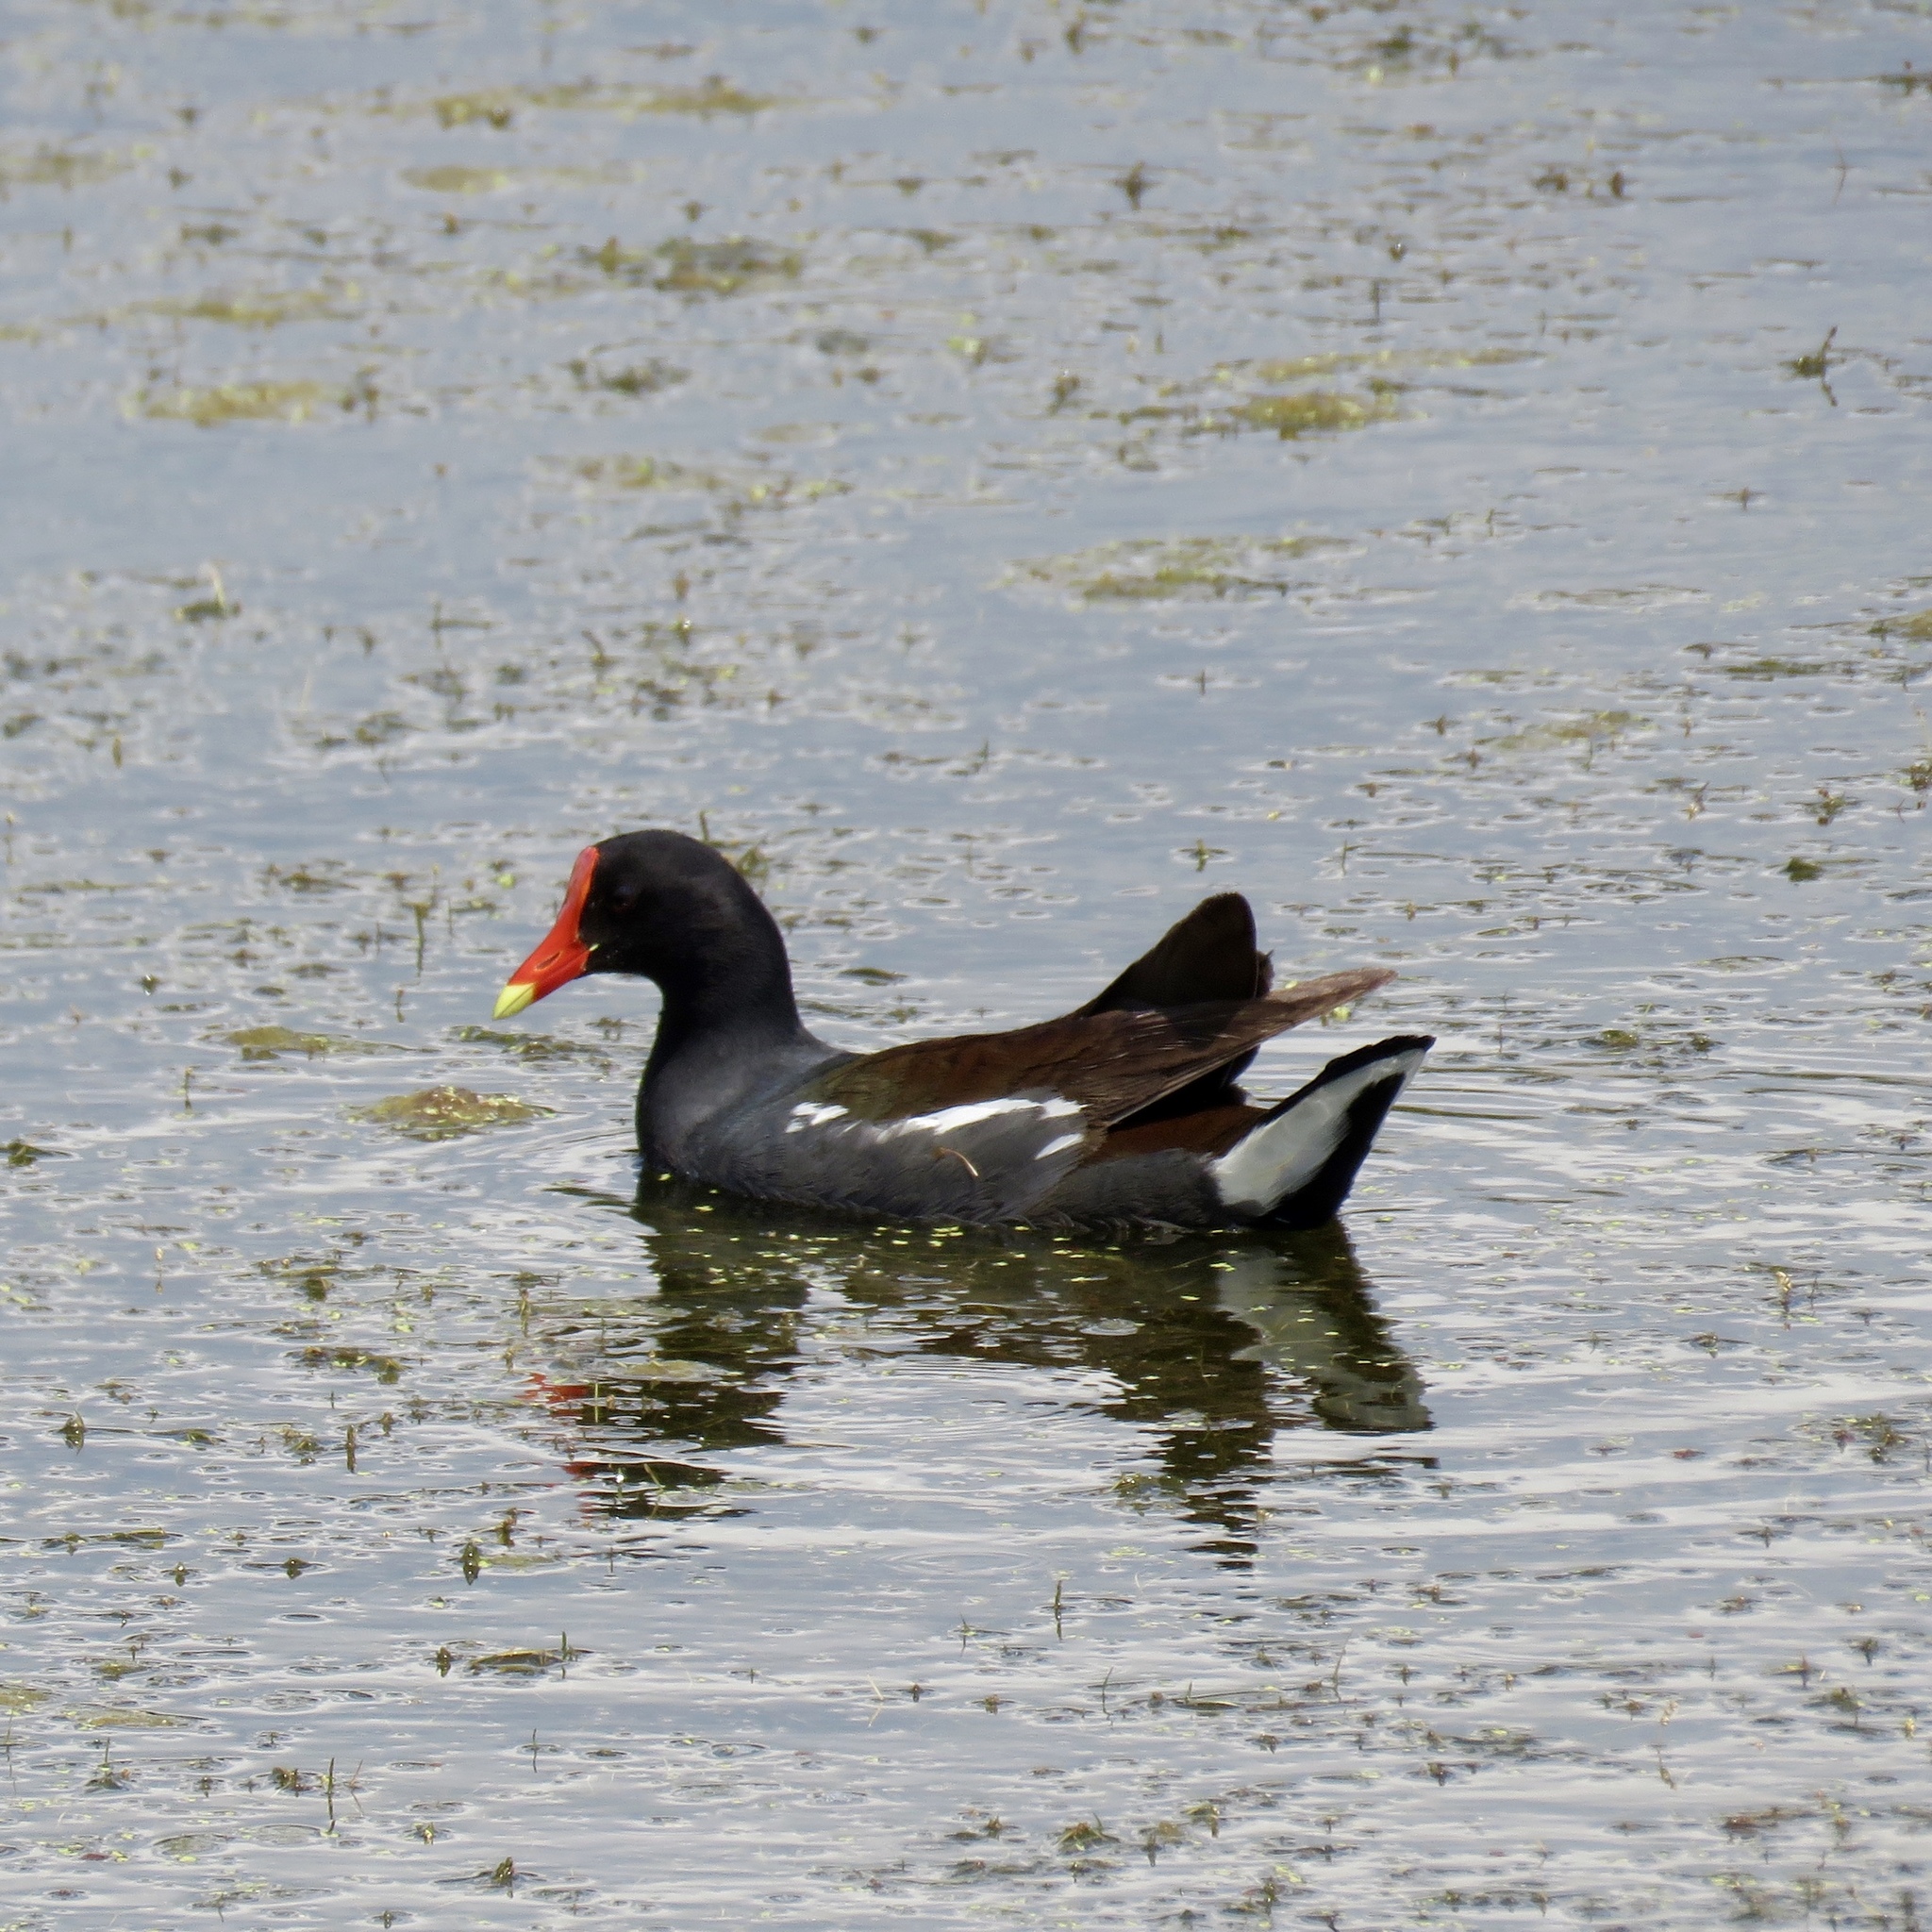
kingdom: Animalia
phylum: Chordata
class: Aves
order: Gruiformes
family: Rallidae
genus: Gallinula
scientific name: Gallinula chloropus
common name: Common moorhen
